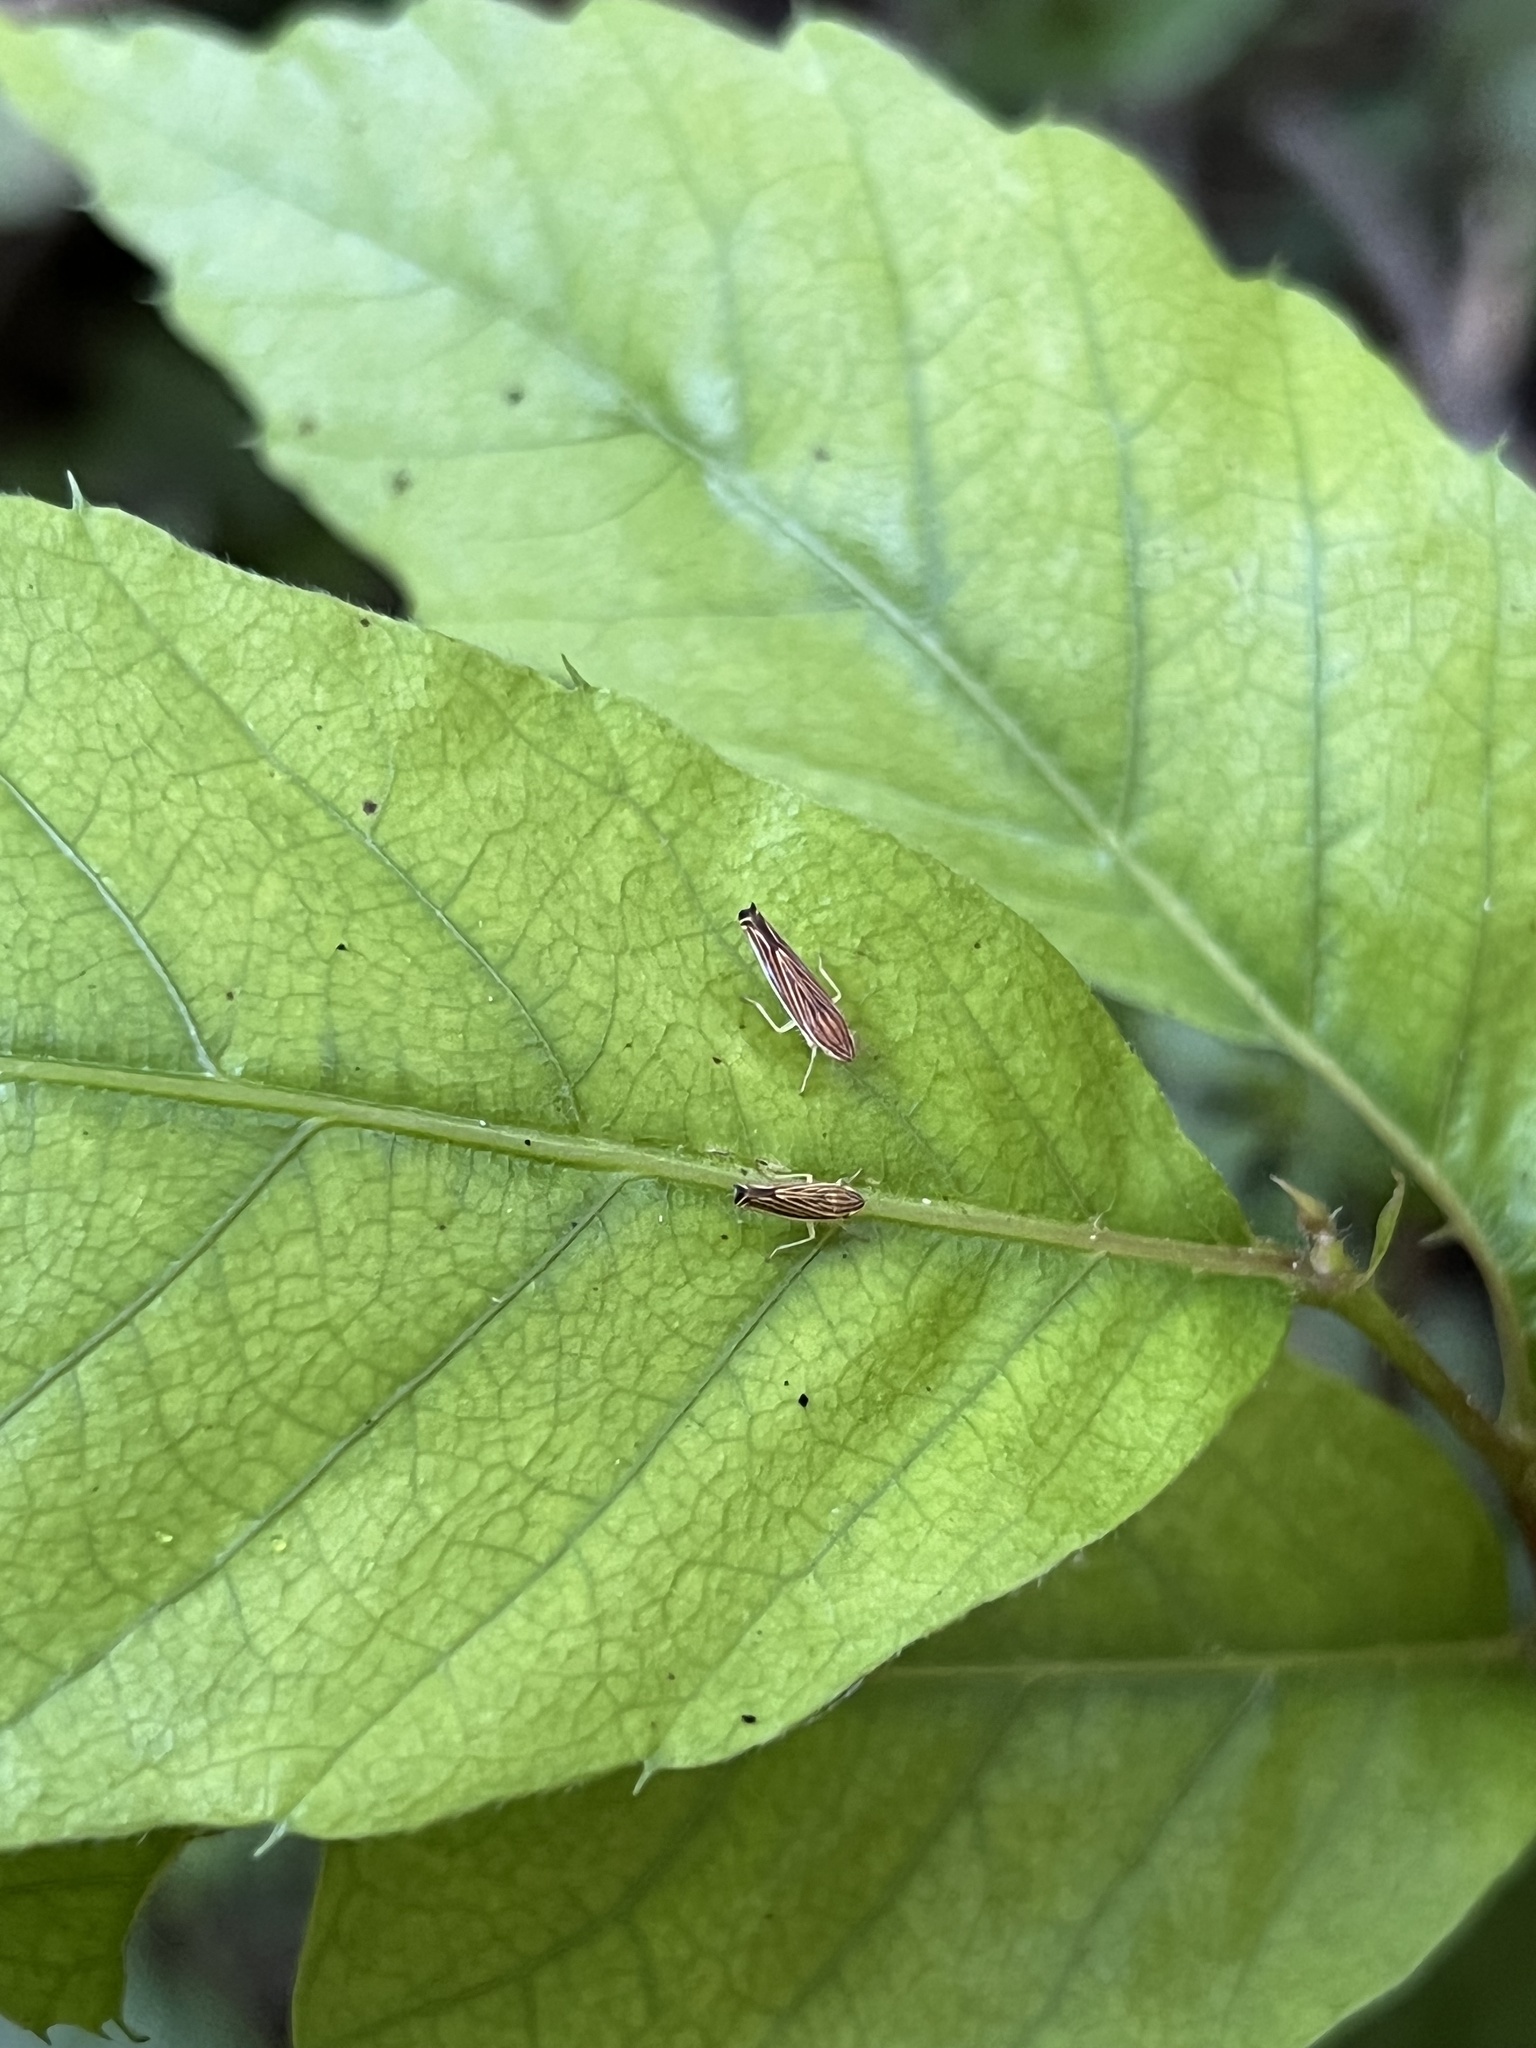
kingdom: Animalia
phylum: Arthropoda
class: Insecta
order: Hemiptera
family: Cicadellidae
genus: Sibovia
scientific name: Sibovia occatoria
